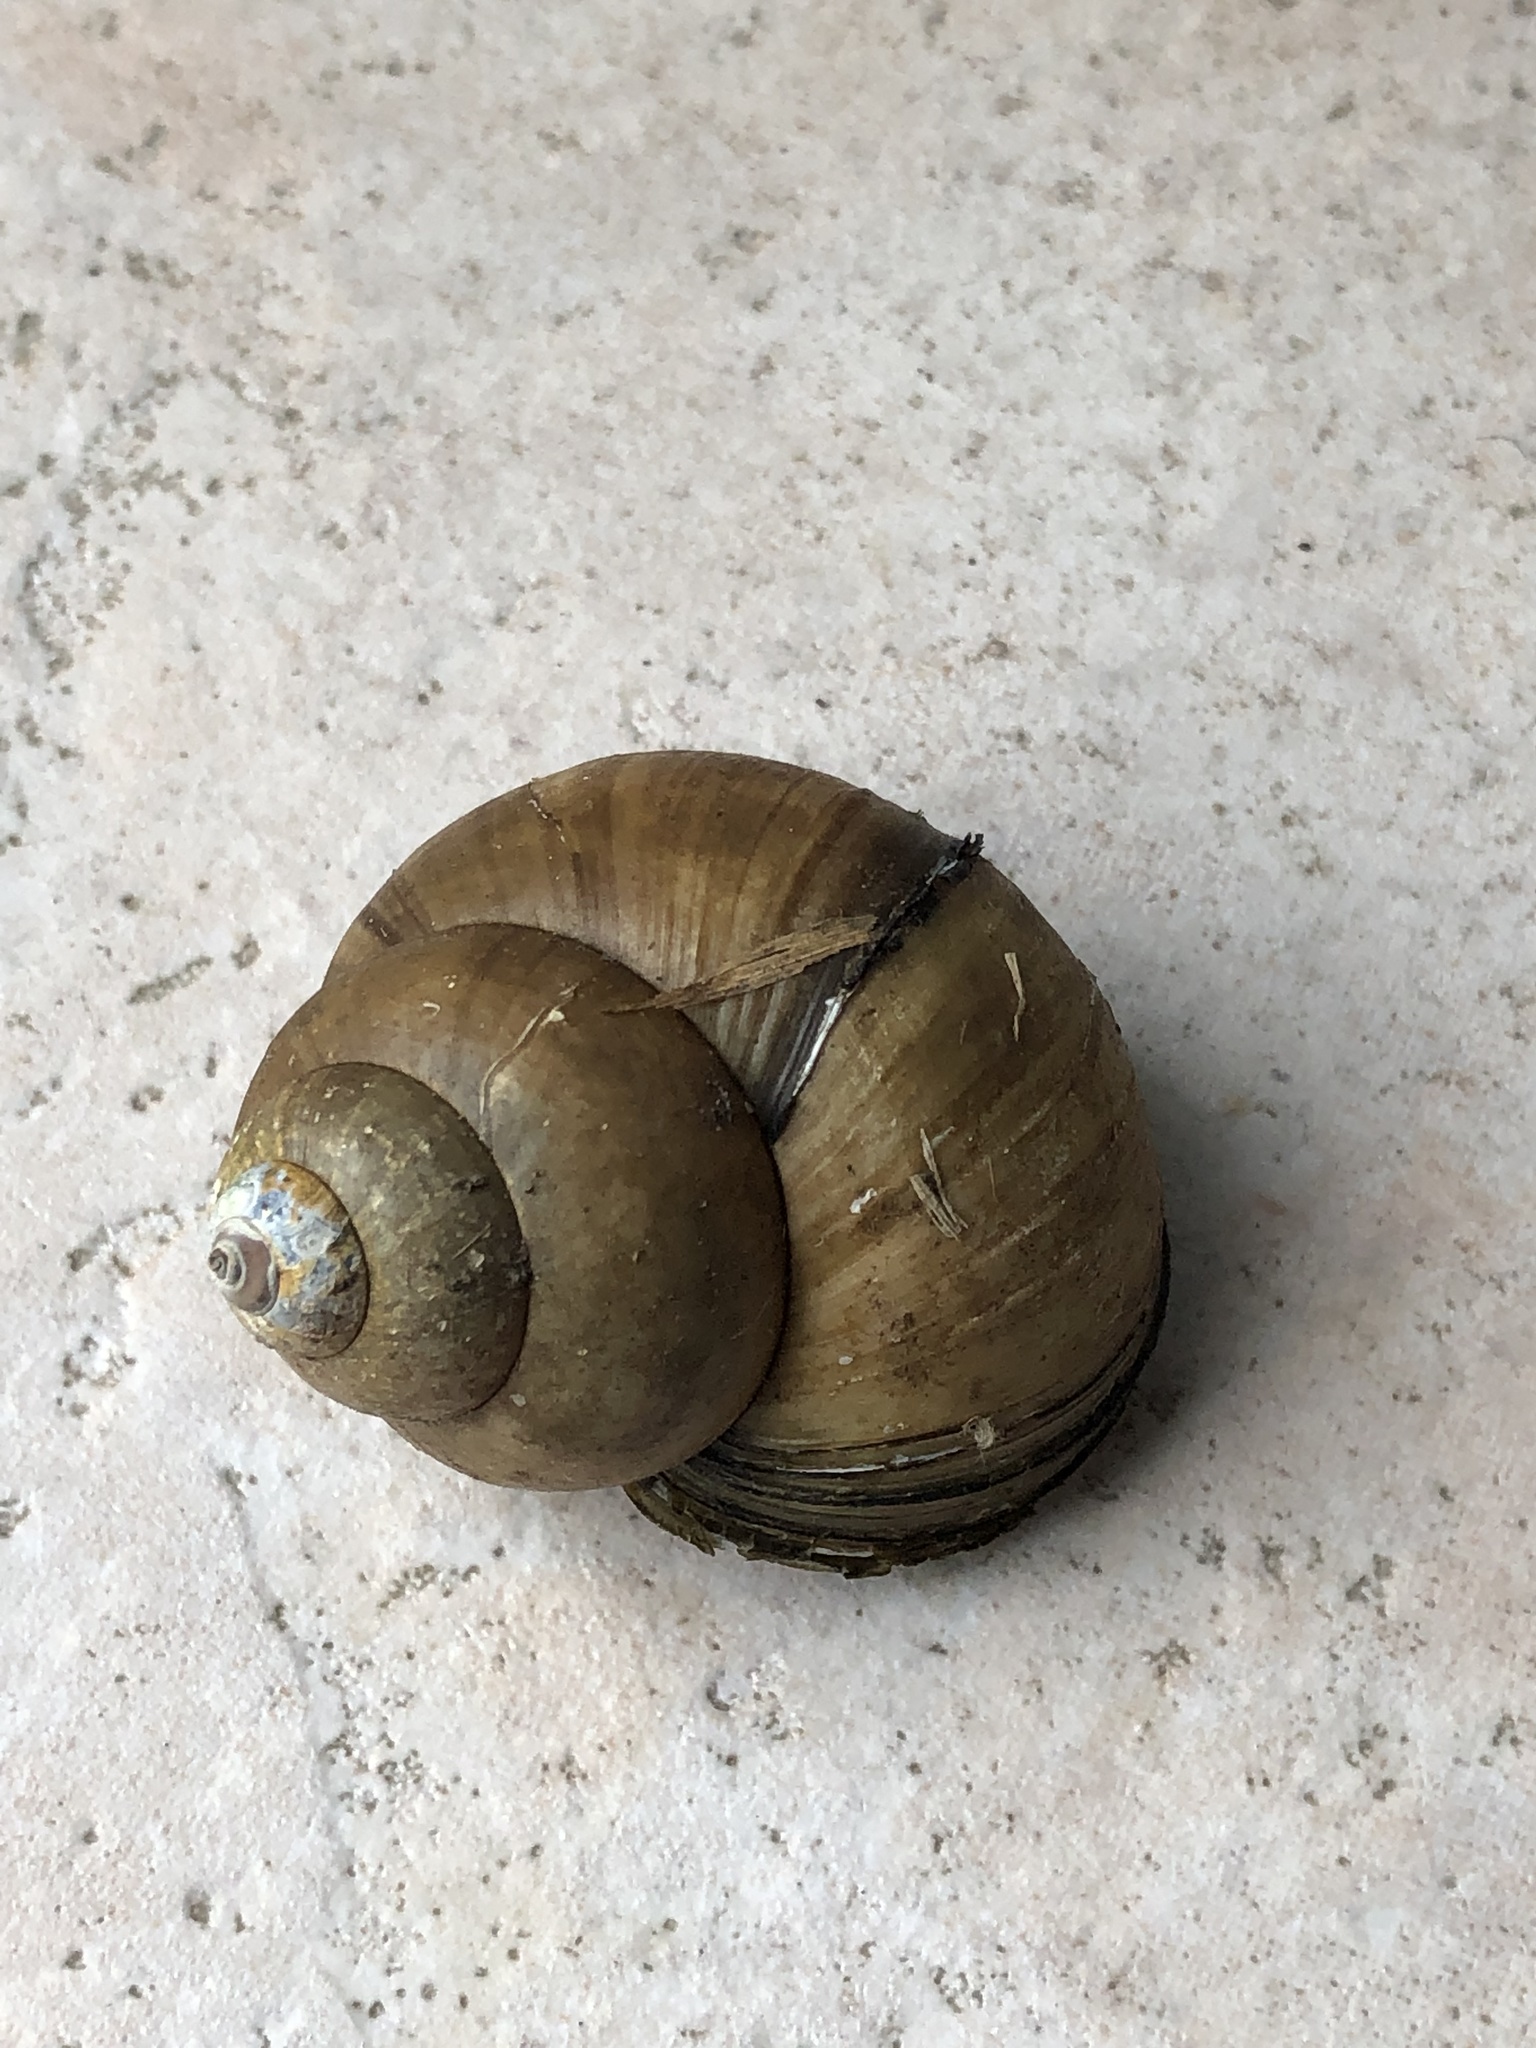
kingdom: Animalia
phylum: Mollusca
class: Gastropoda
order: Architaenioglossa
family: Viviparidae
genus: Cipangopaludina
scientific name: Cipangopaludina chinensis
